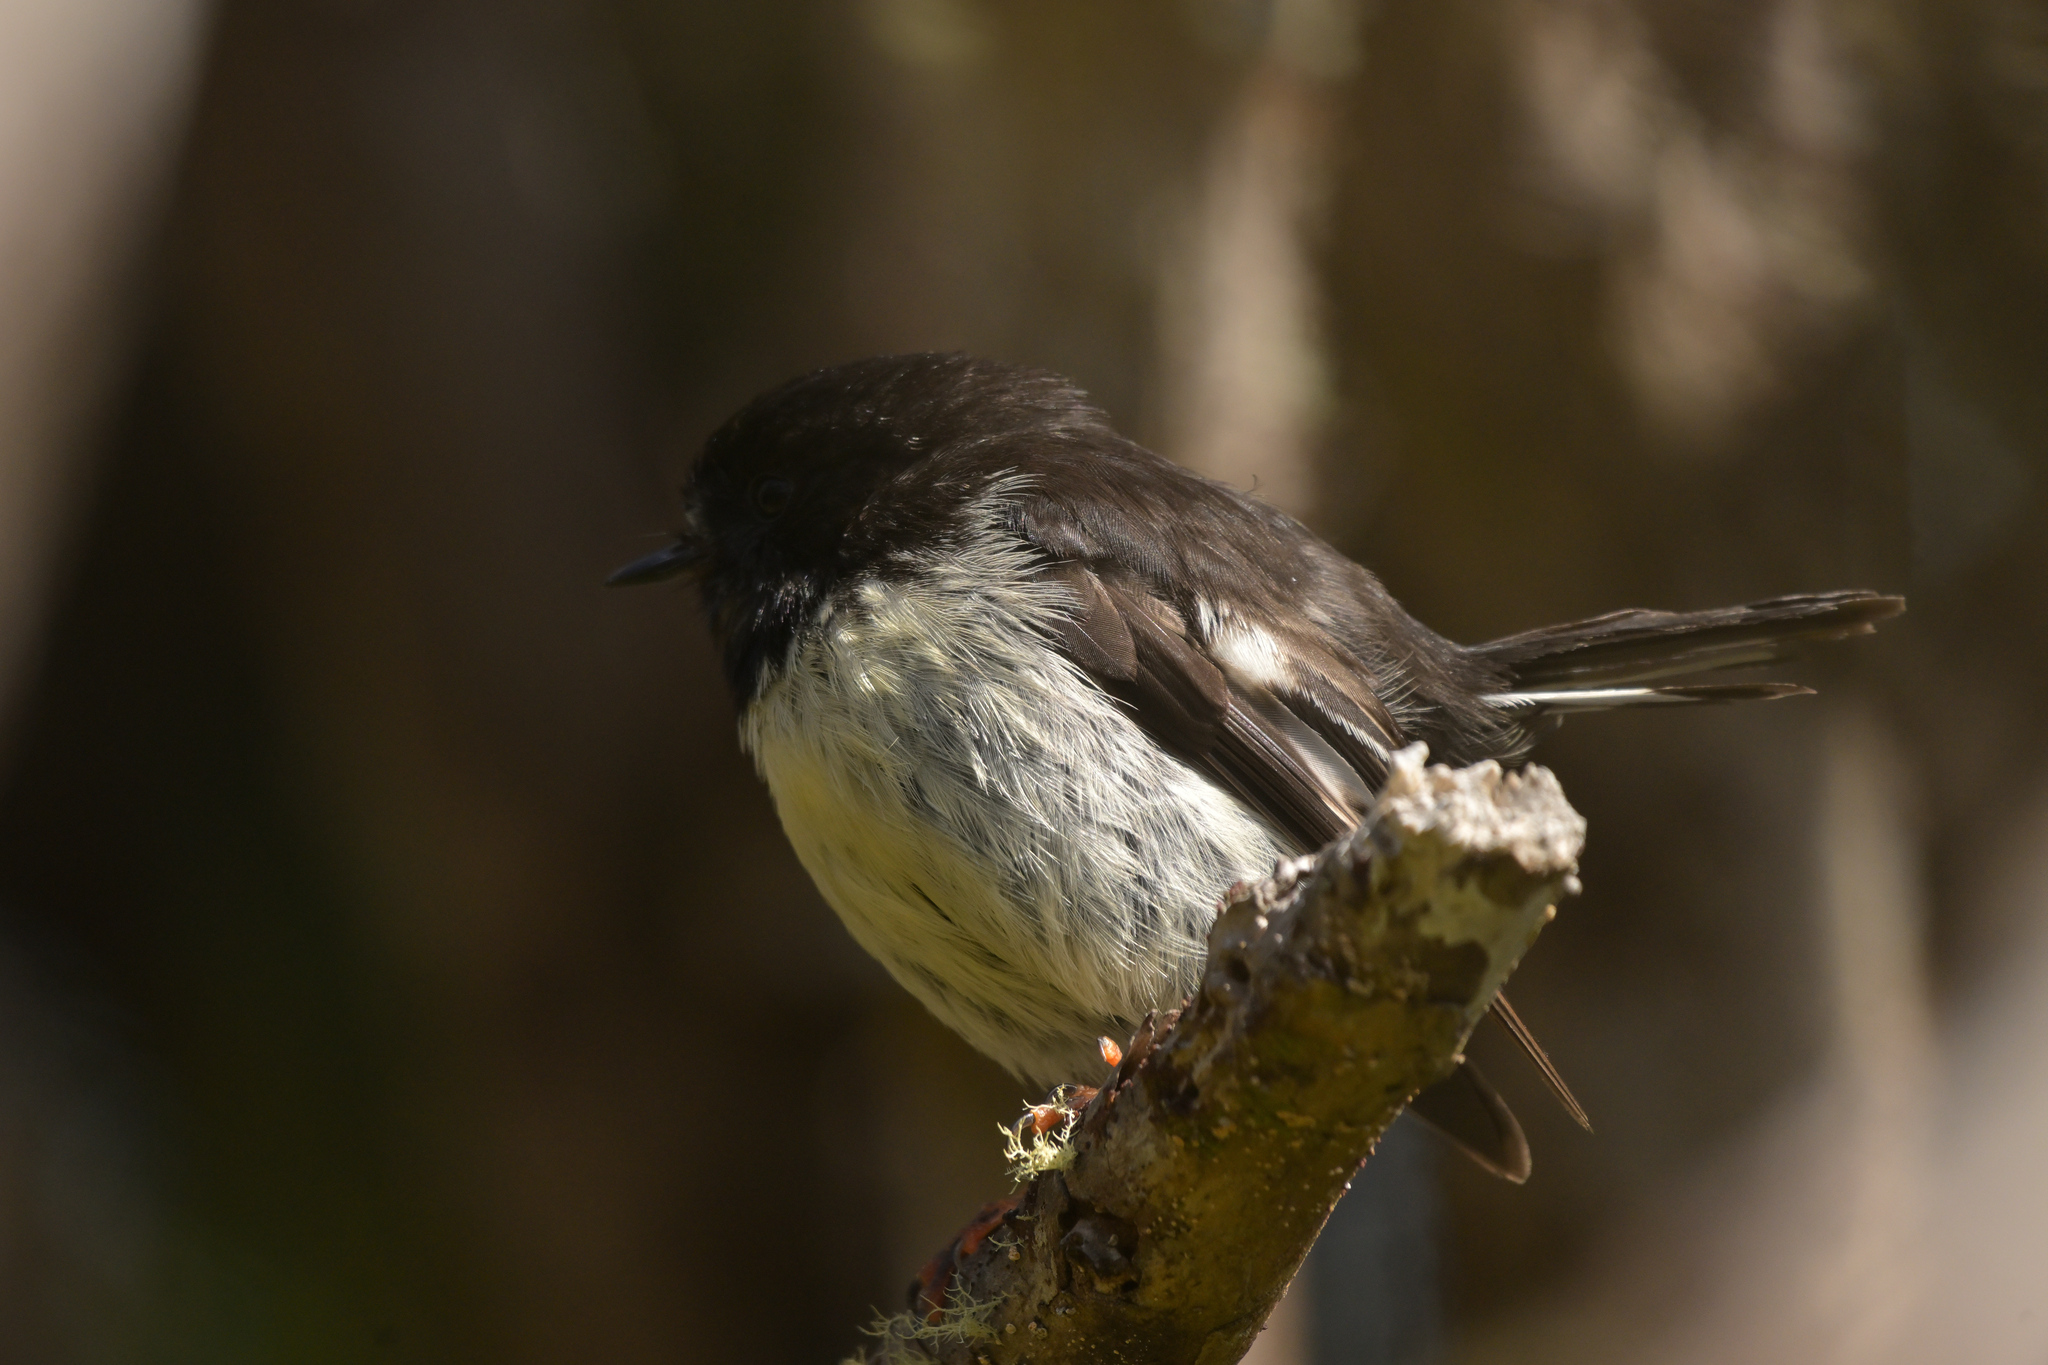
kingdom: Animalia
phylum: Chordata
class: Aves
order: Passeriformes
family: Petroicidae
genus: Petroica
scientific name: Petroica macrocephala
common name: Tomtit
